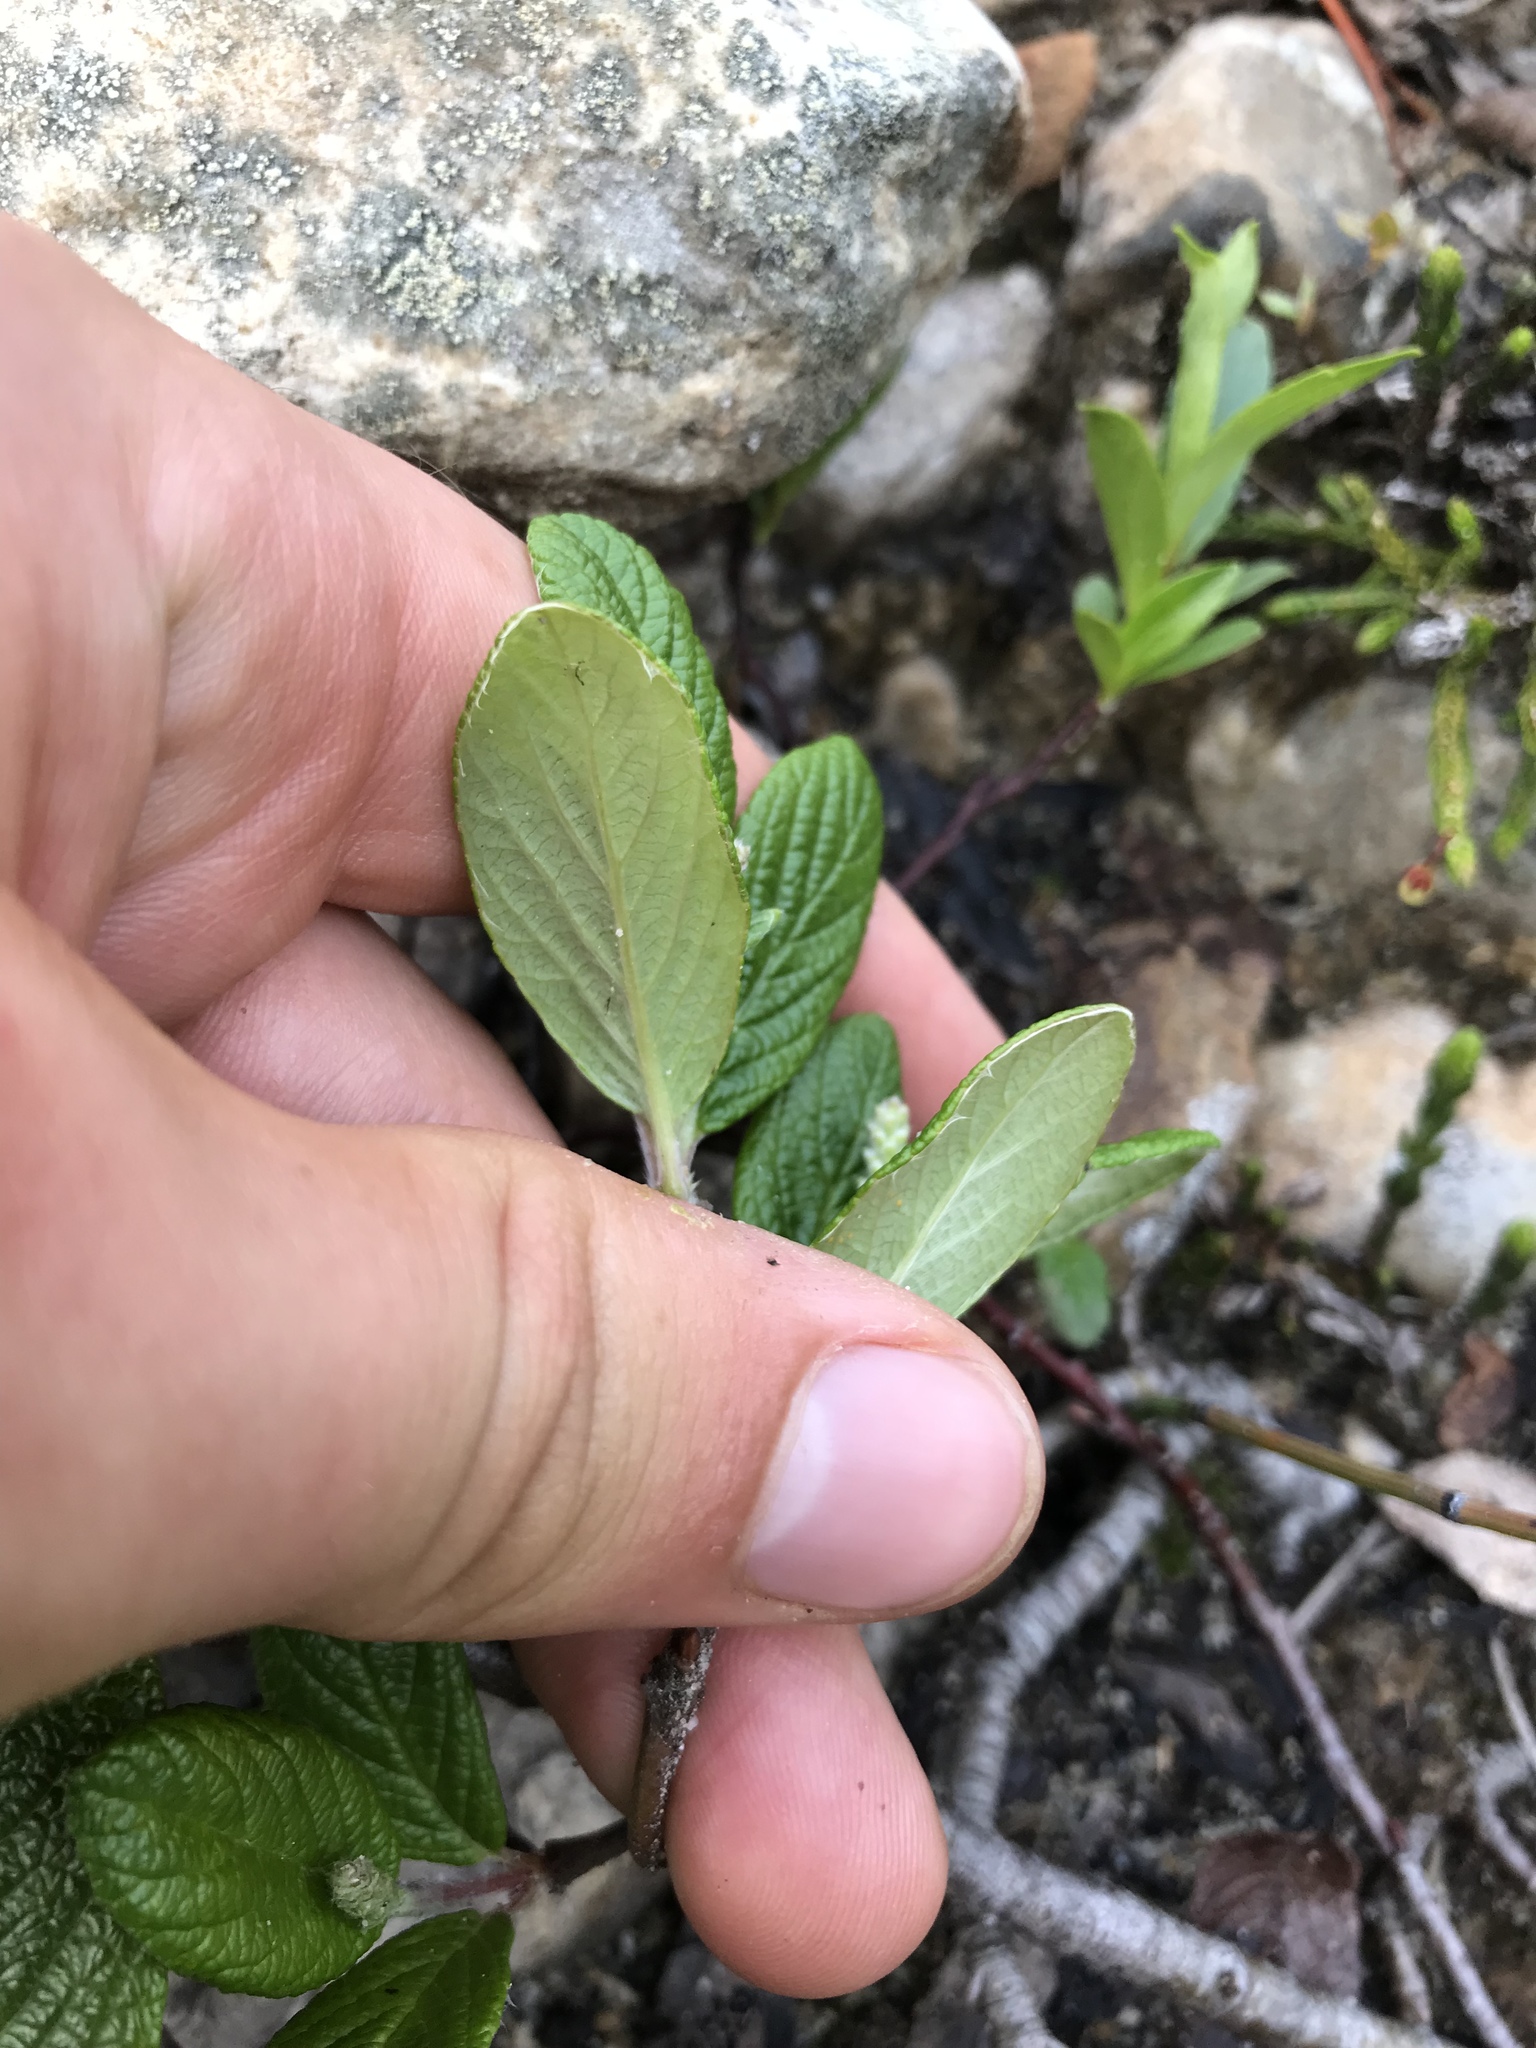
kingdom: Plantae
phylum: Tracheophyta
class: Magnoliopsida
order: Malpighiales
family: Salicaceae
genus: Salix
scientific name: Salix vestita
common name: Hairy willow
